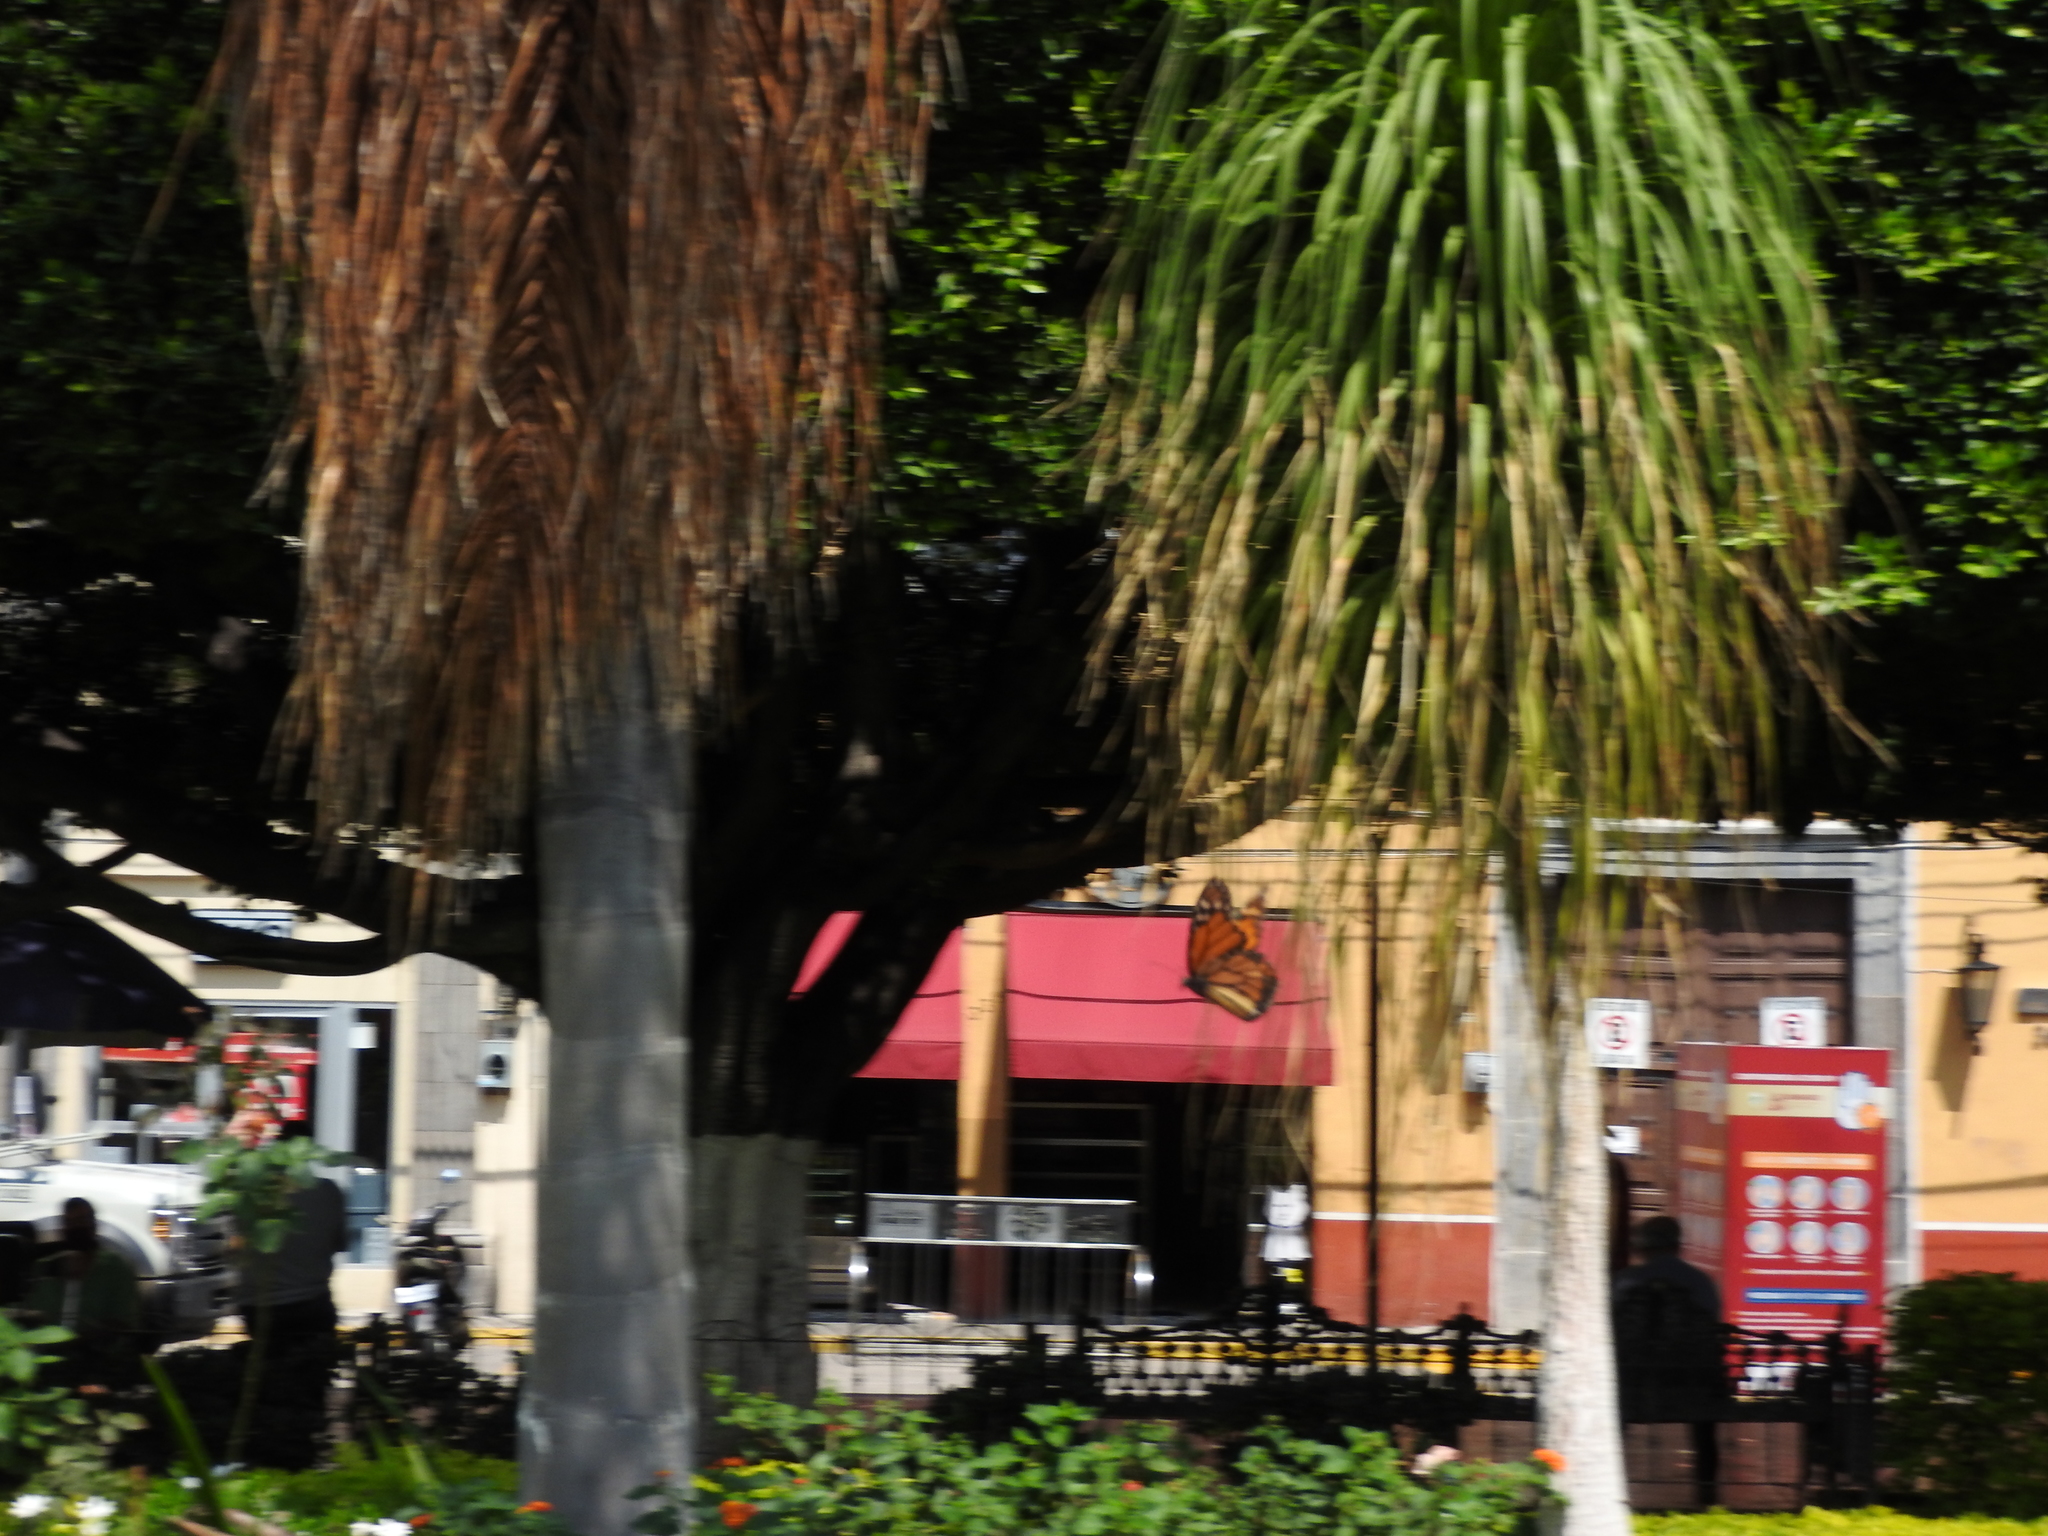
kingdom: Animalia
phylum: Arthropoda
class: Insecta
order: Lepidoptera
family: Nymphalidae
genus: Danaus
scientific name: Danaus plexippus
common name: Monarch
